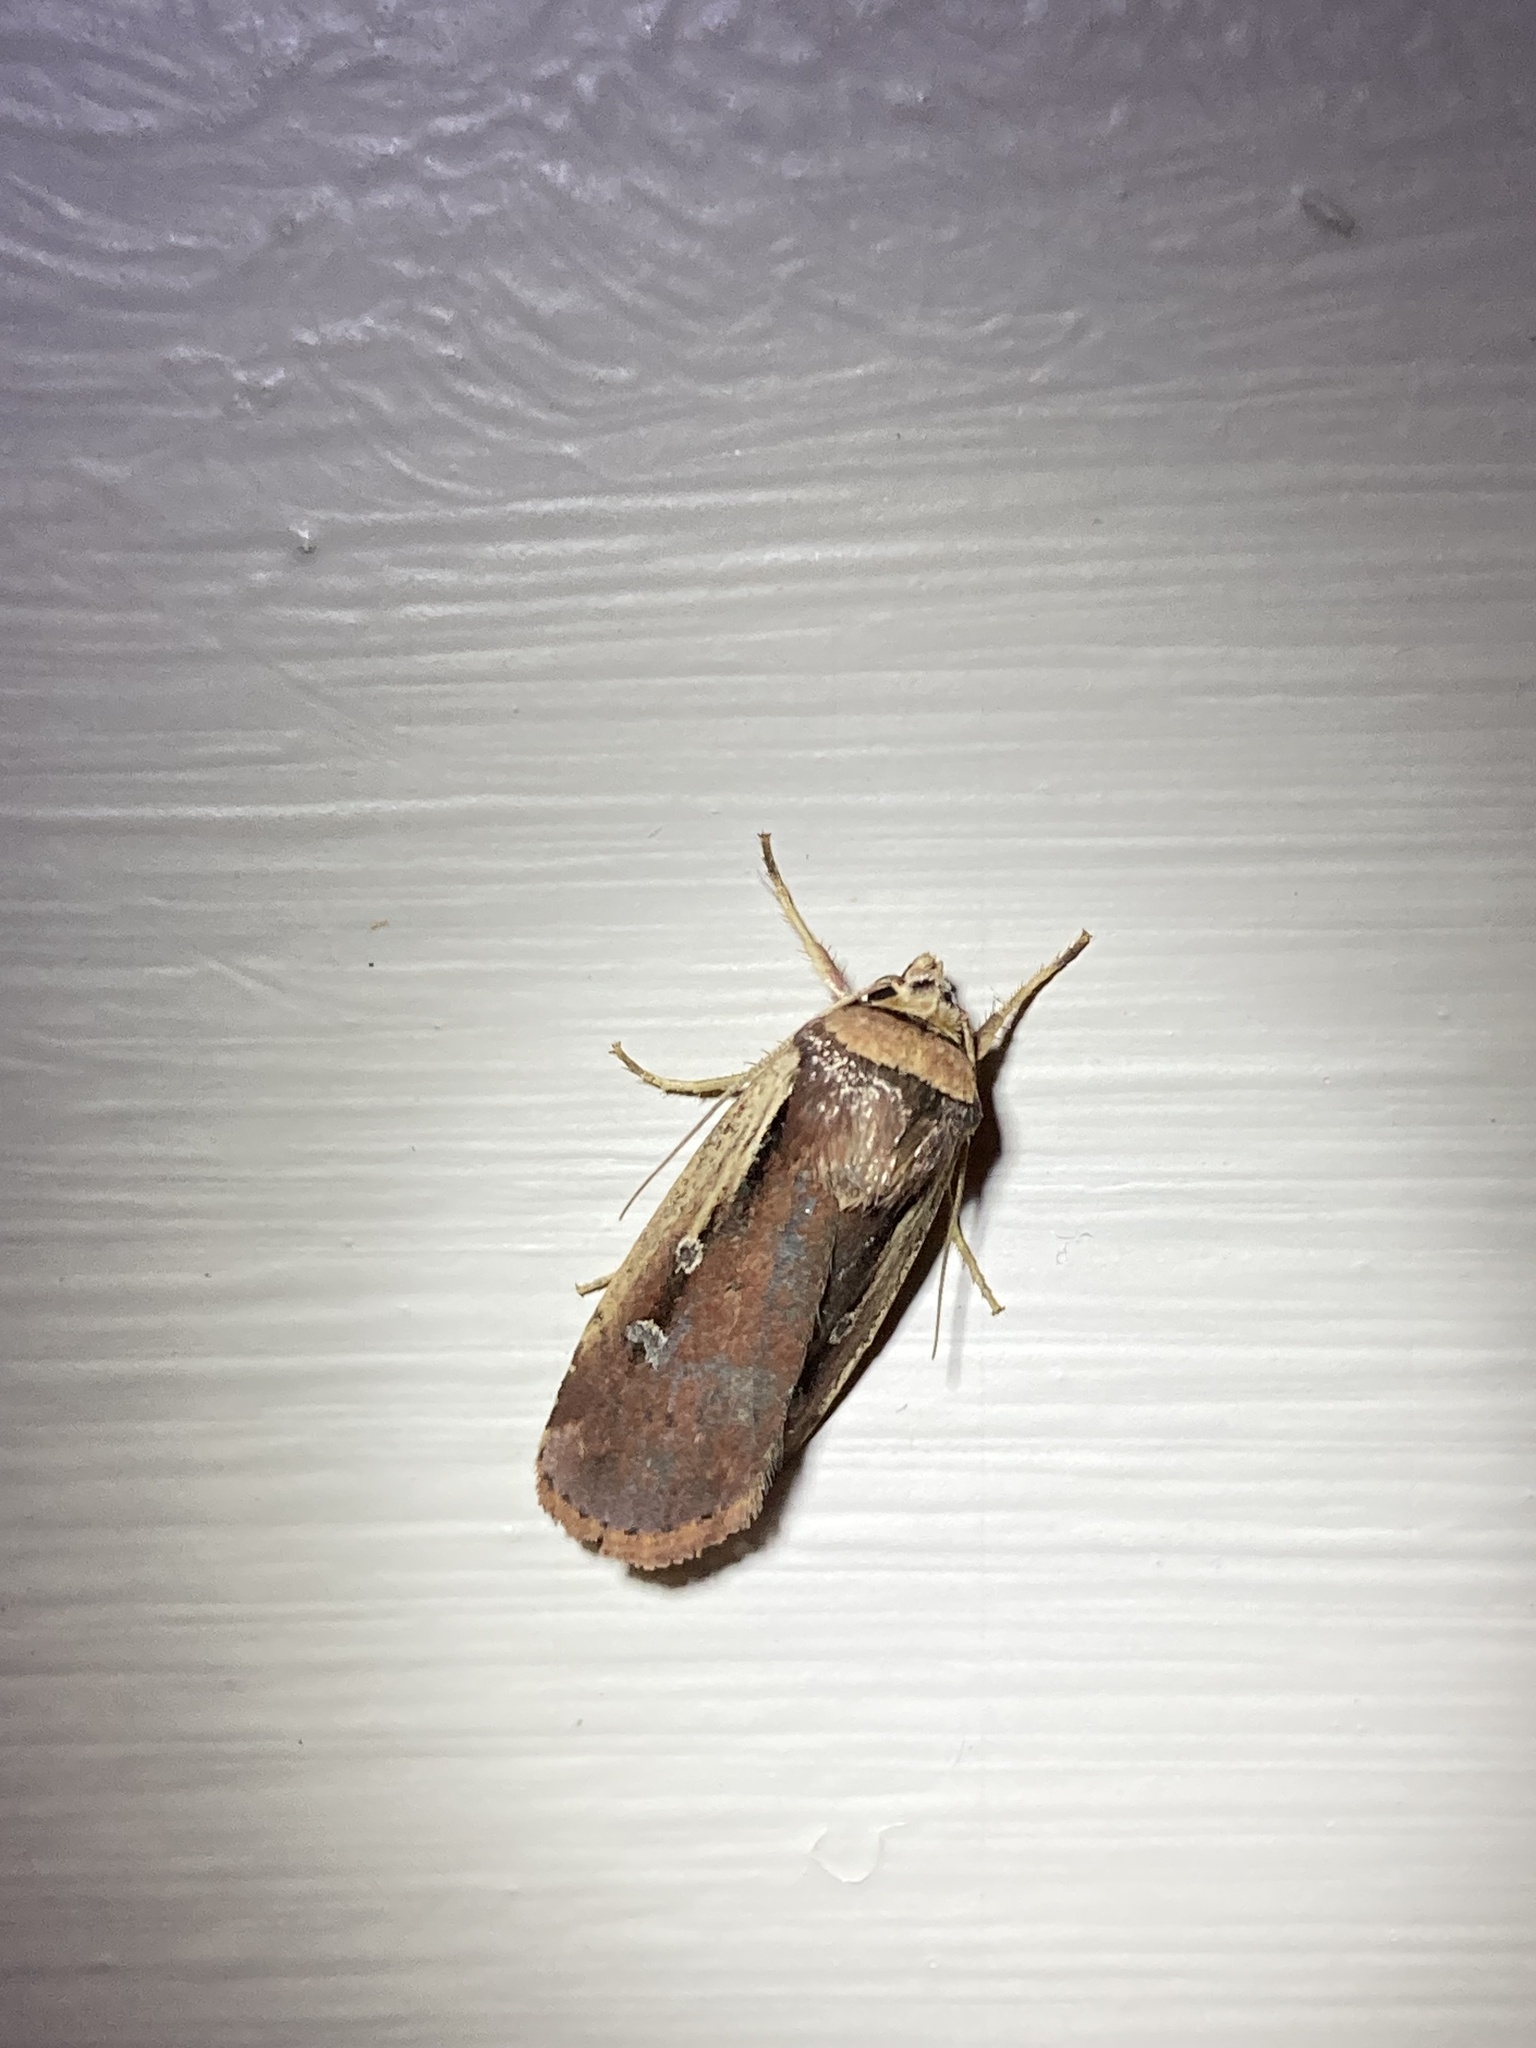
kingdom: Animalia
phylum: Arthropoda
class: Insecta
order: Lepidoptera
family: Noctuidae
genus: Ochropleura
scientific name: Ochropleura implecta
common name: Flame-shouldered dart
